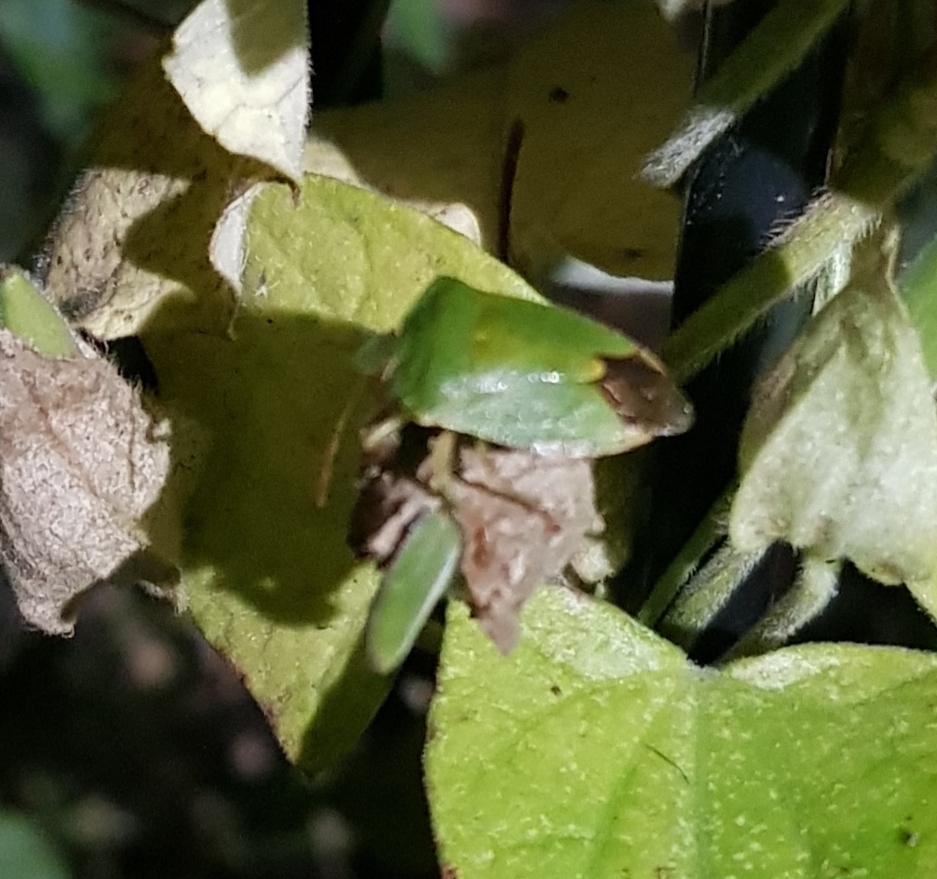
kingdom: Animalia
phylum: Arthropoda
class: Insecta
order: Hemiptera
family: Pentatomidae
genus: Palomena
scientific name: Palomena prasina
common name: Green shieldbug
